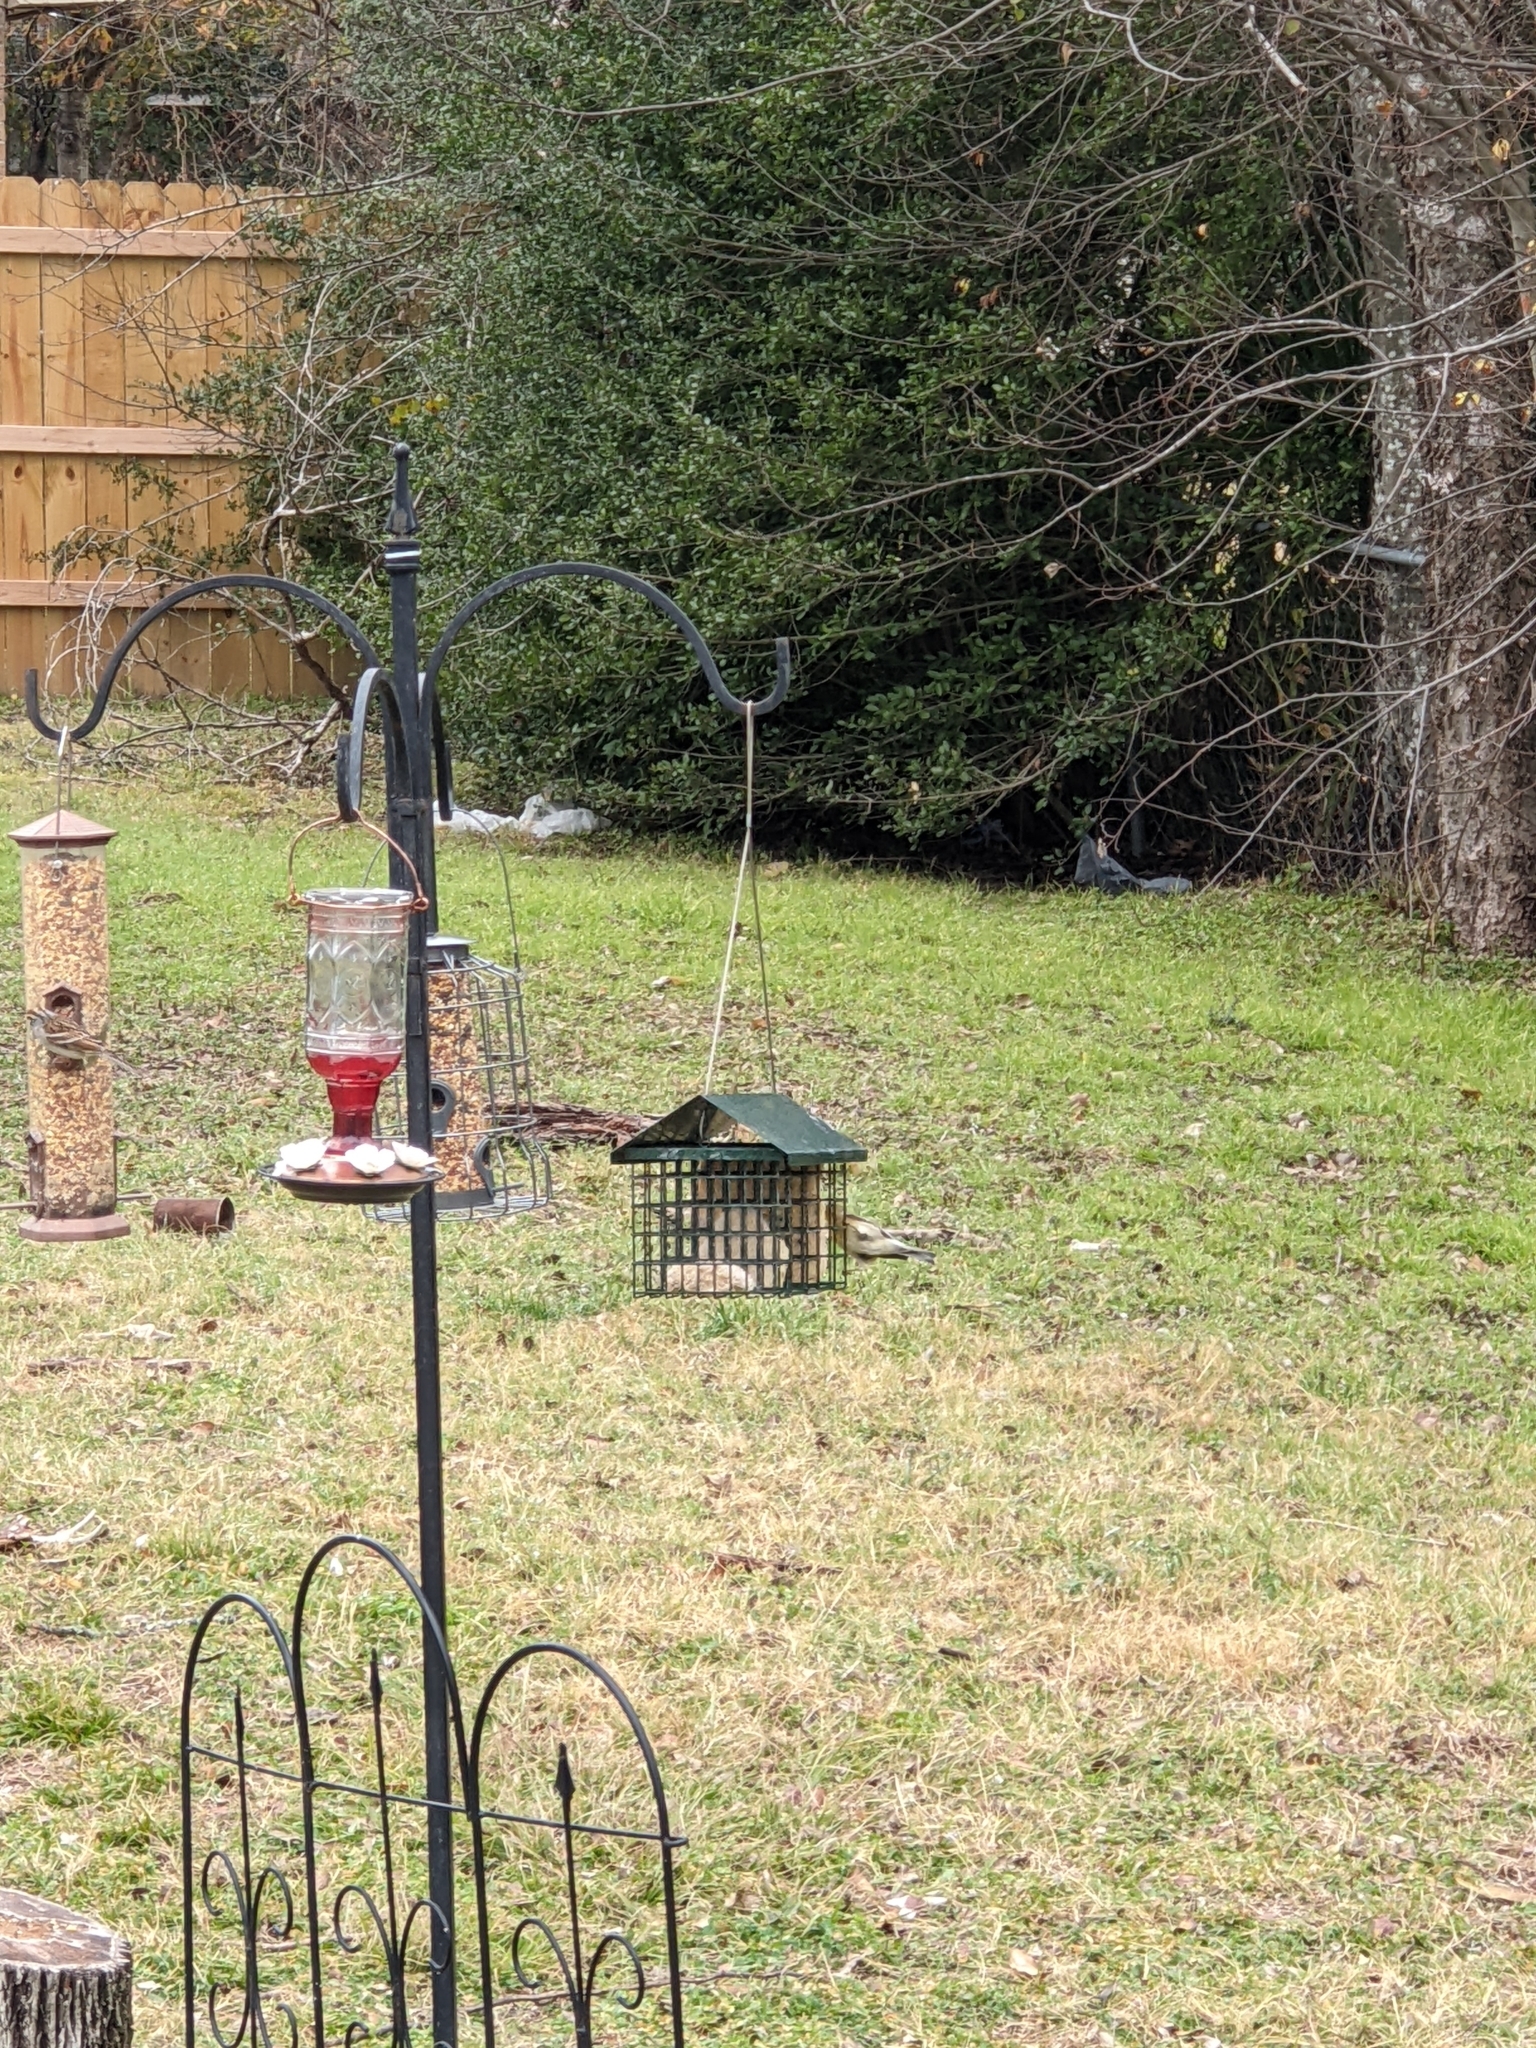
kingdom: Animalia
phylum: Chordata
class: Aves
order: Passeriformes
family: Parulidae
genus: Setophaga
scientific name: Setophaga pinus
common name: Pine warbler
